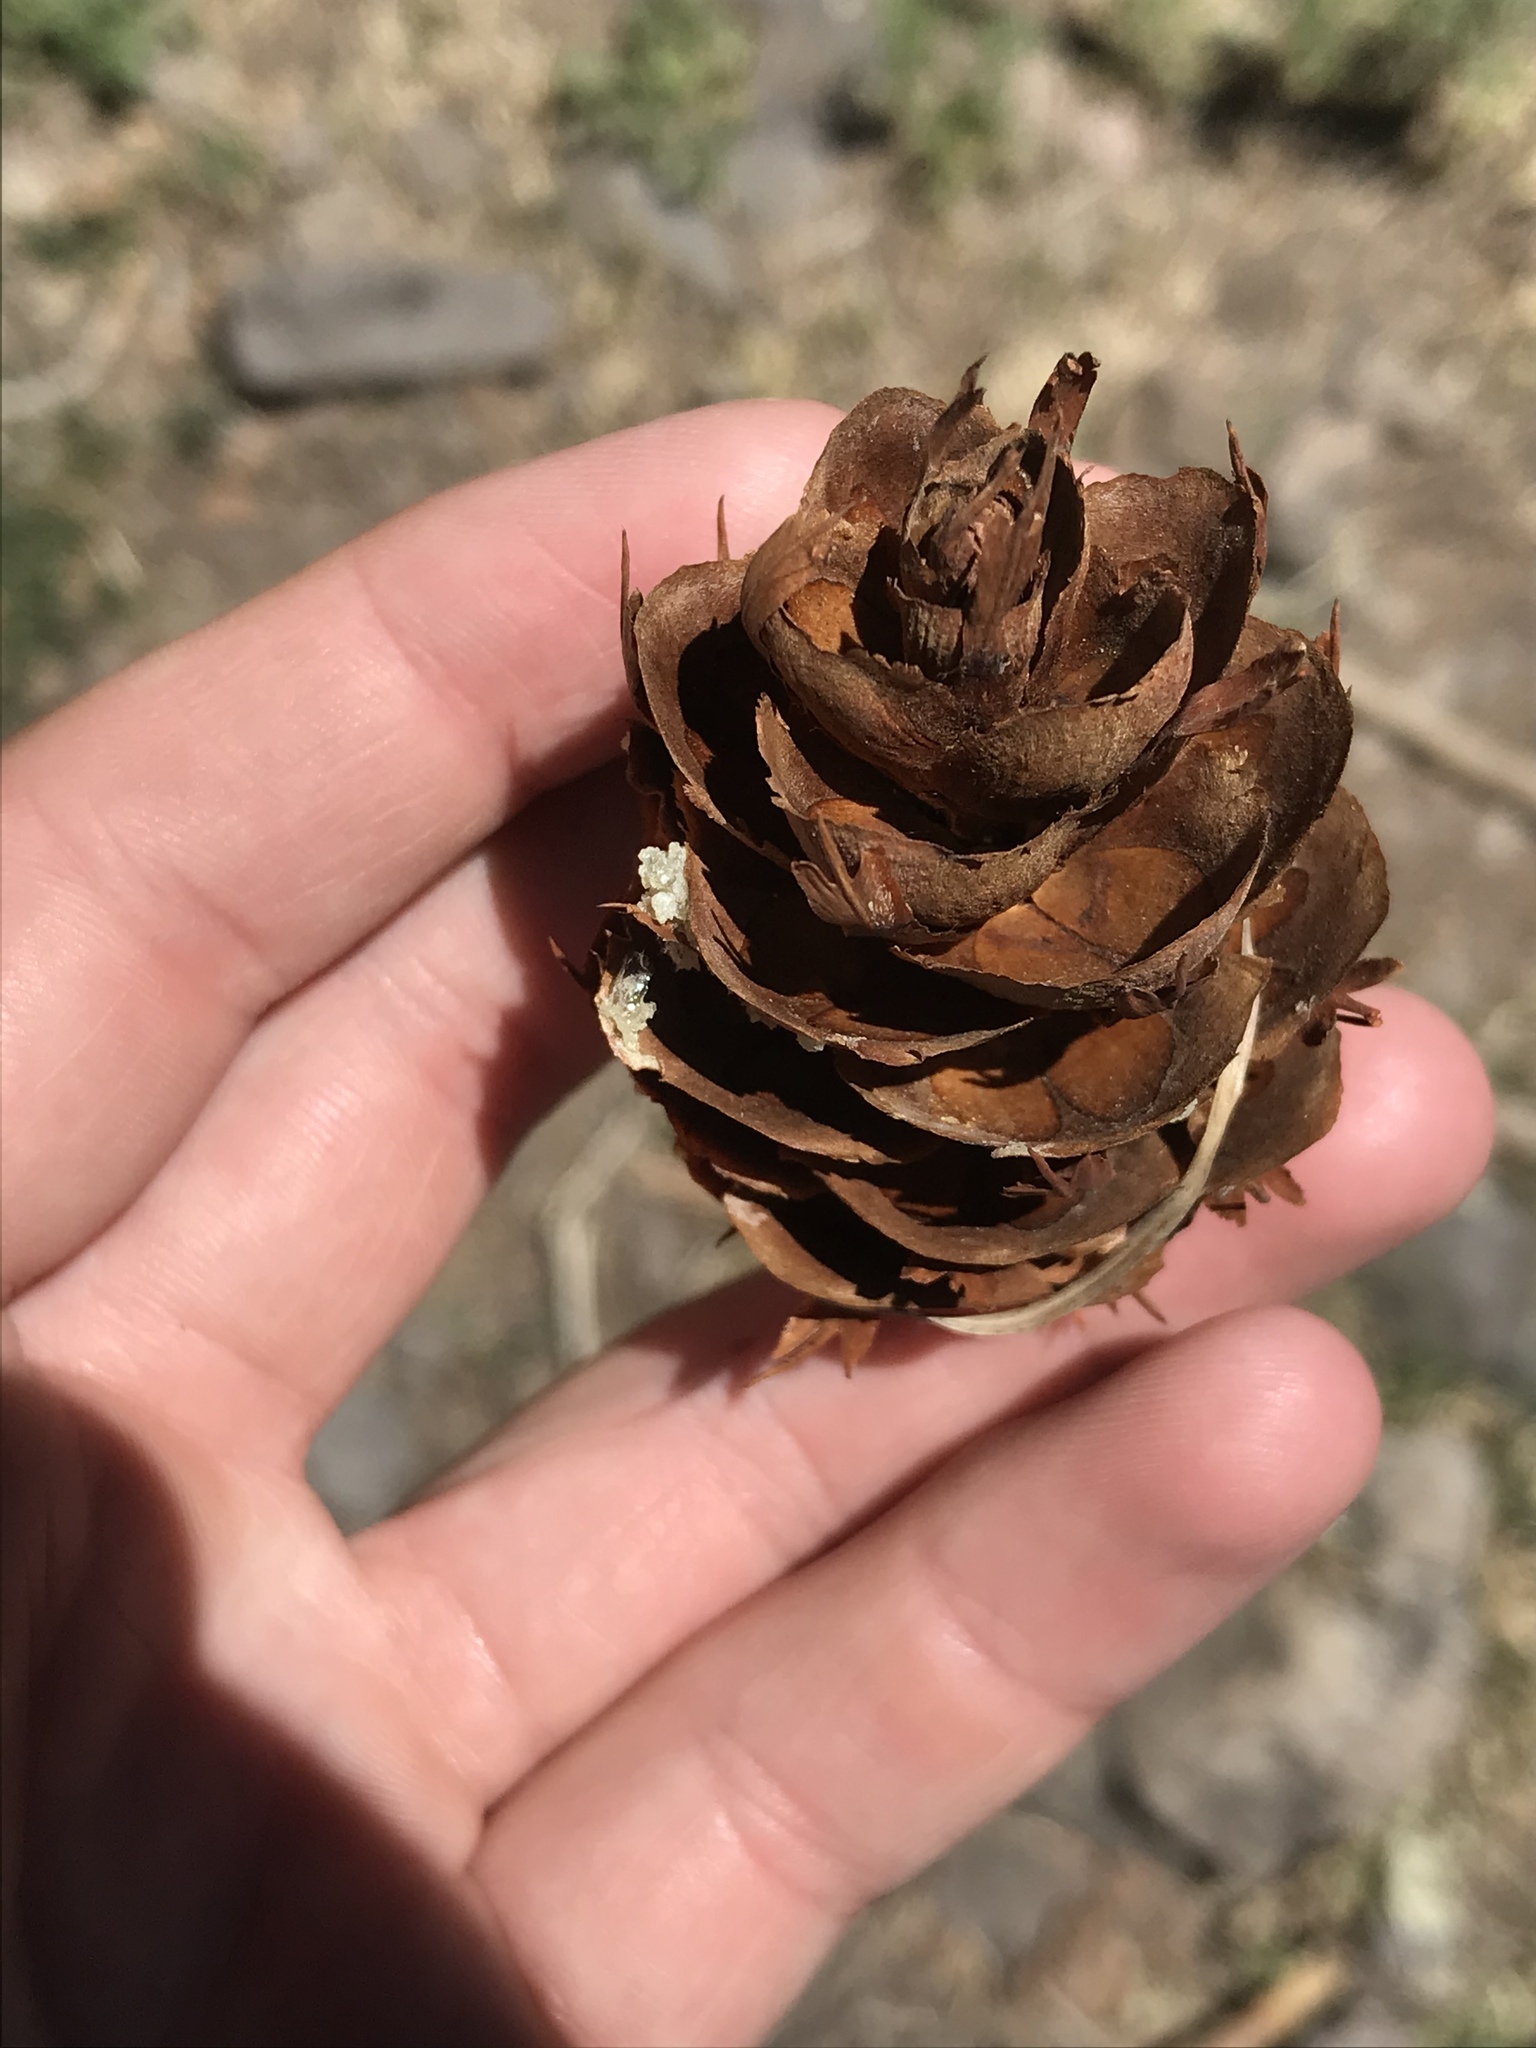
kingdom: Plantae
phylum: Tracheophyta
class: Pinopsida
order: Pinales
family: Pinaceae
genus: Pseudotsuga
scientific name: Pseudotsuga menziesii
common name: Douglas fir
